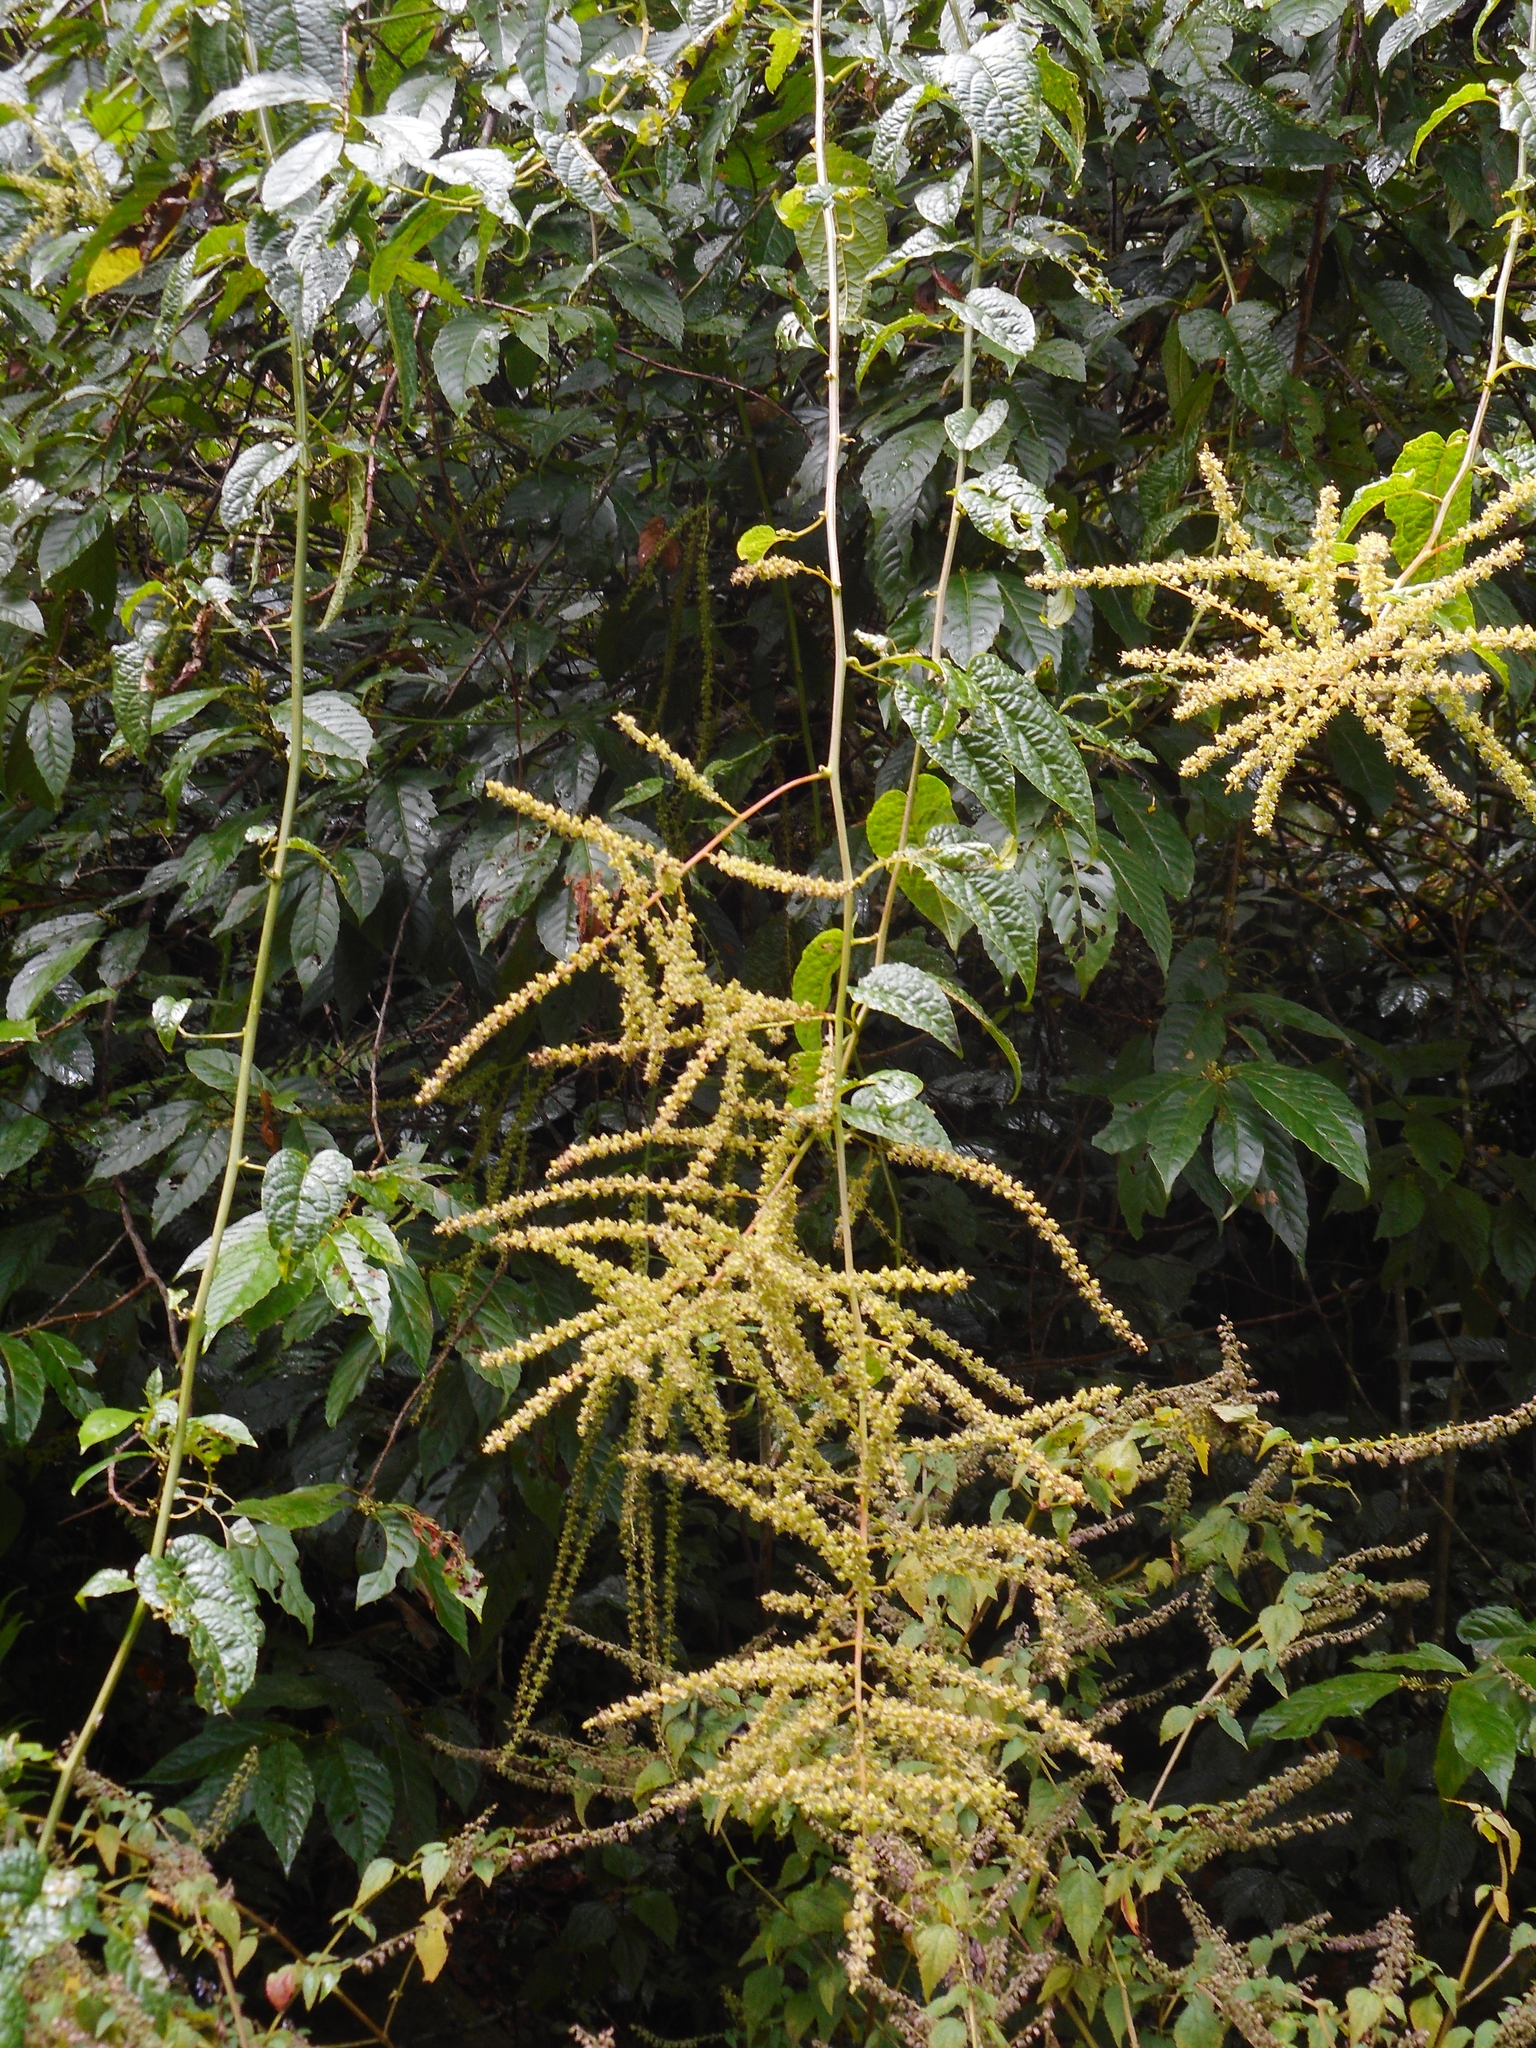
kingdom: Plantae
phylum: Tracheophyta
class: Magnoliopsida
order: Caryophyllales
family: Amaranthaceae
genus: Deeringia
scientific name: Deeringia amaranthoides
